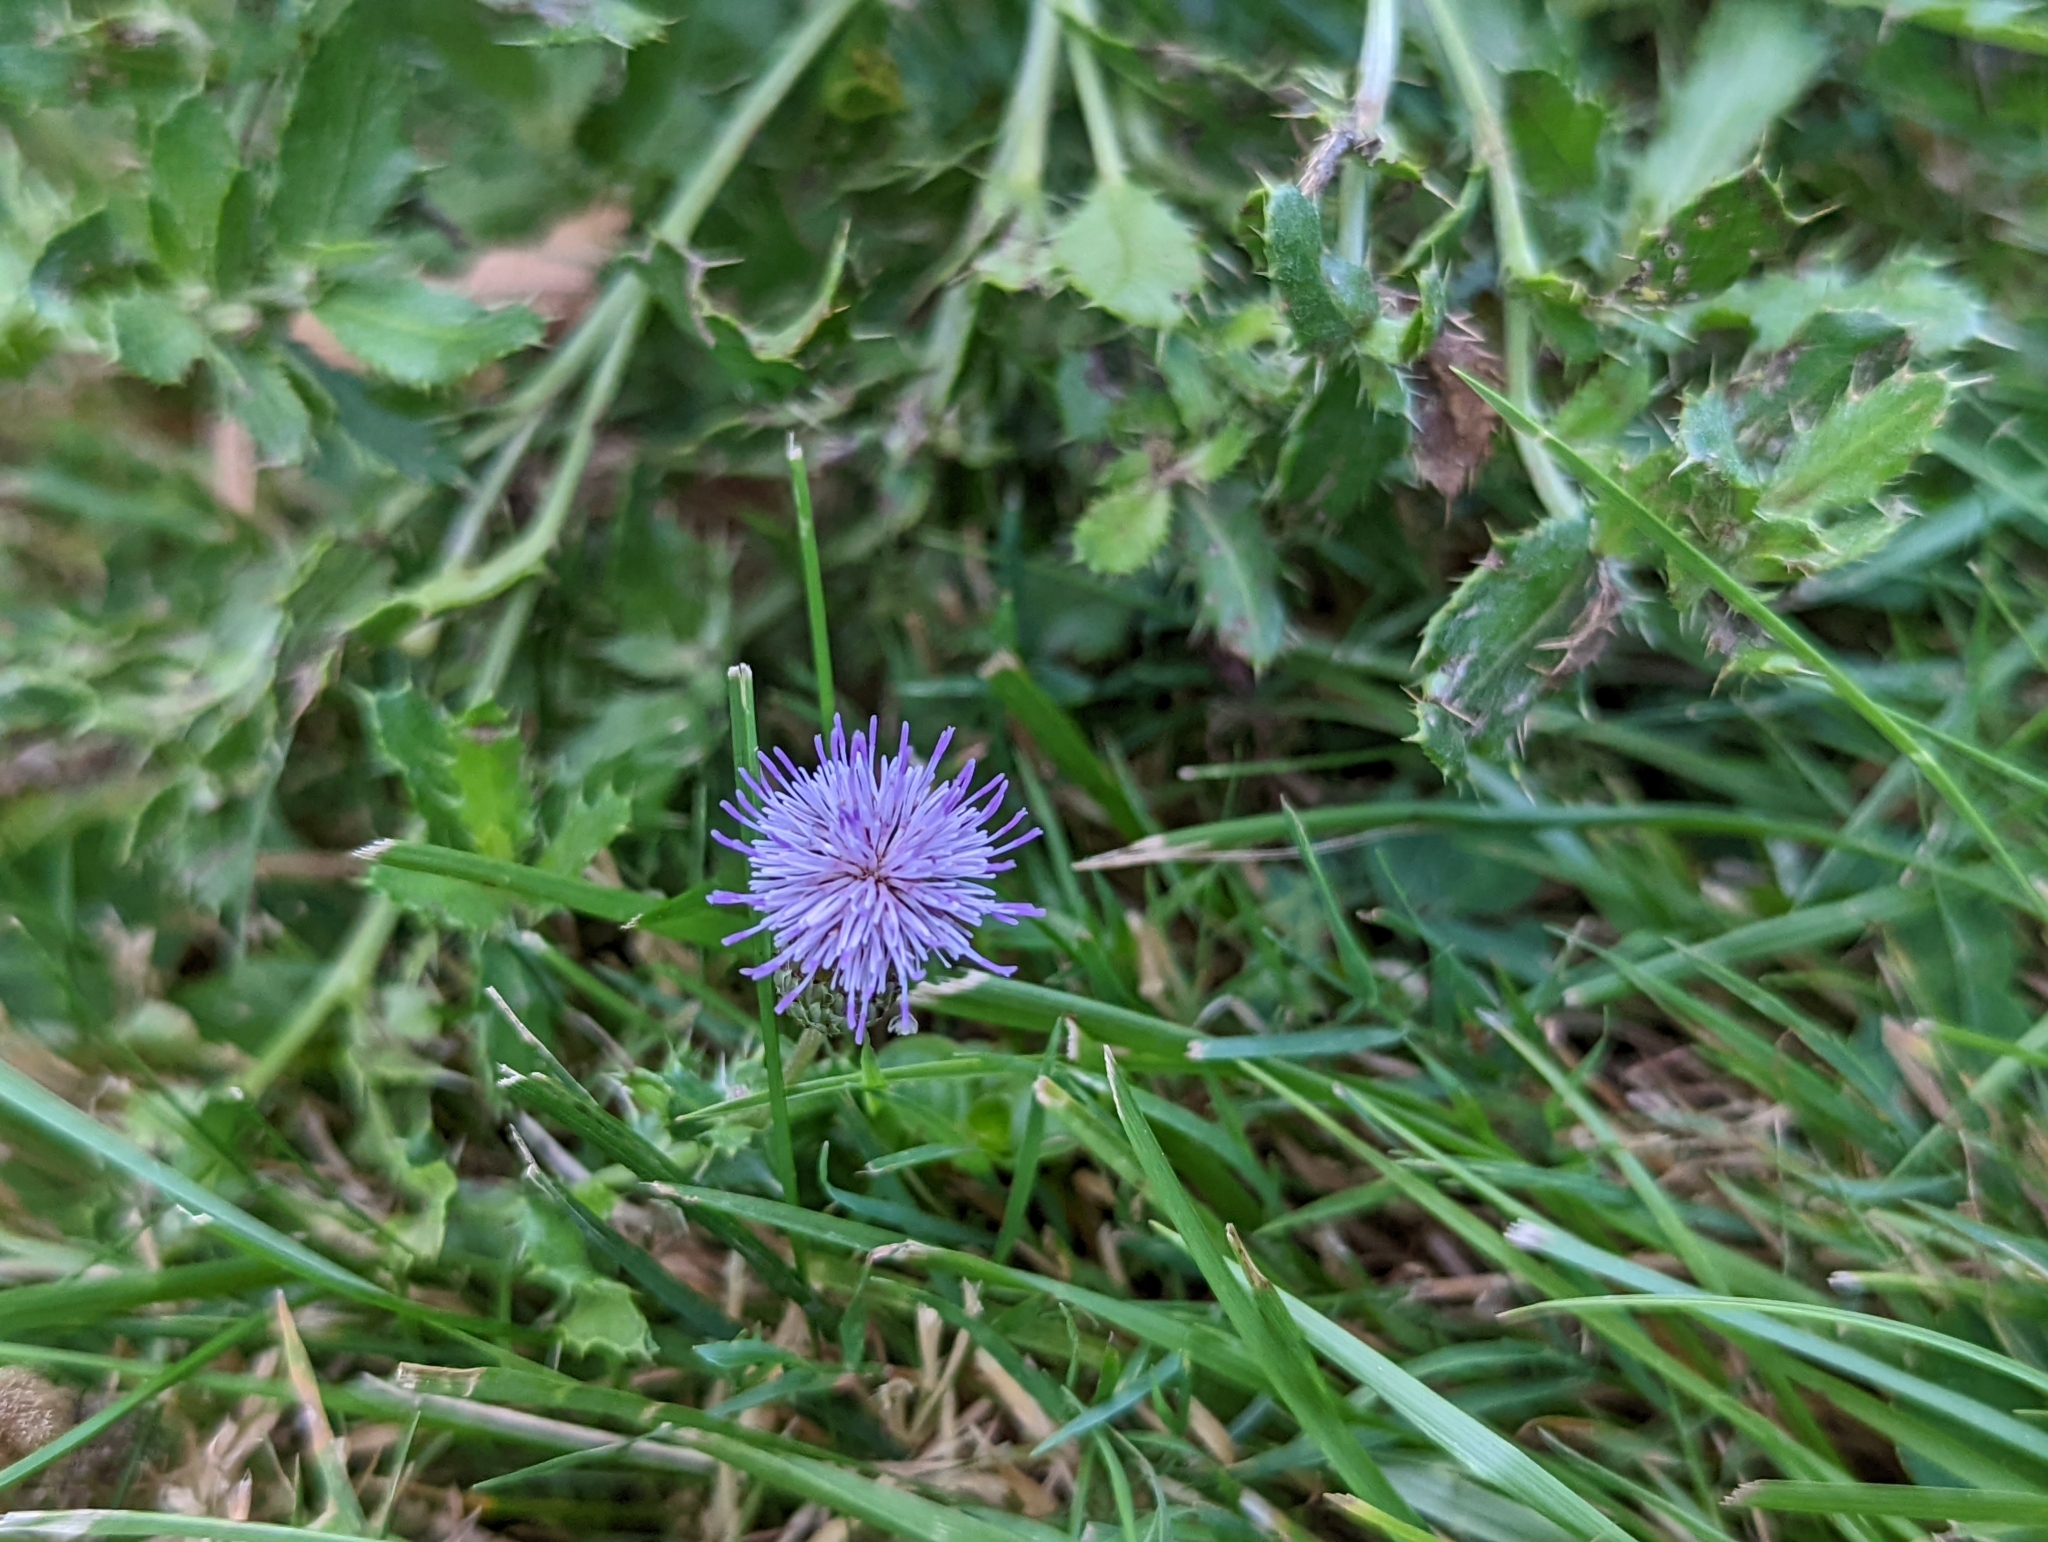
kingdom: Plantae
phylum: Tracheophyta
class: Magnoliopsida
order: Asterales
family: Asteraceae
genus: Cirsium
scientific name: Cirsium arvense
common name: Creeping thistle
